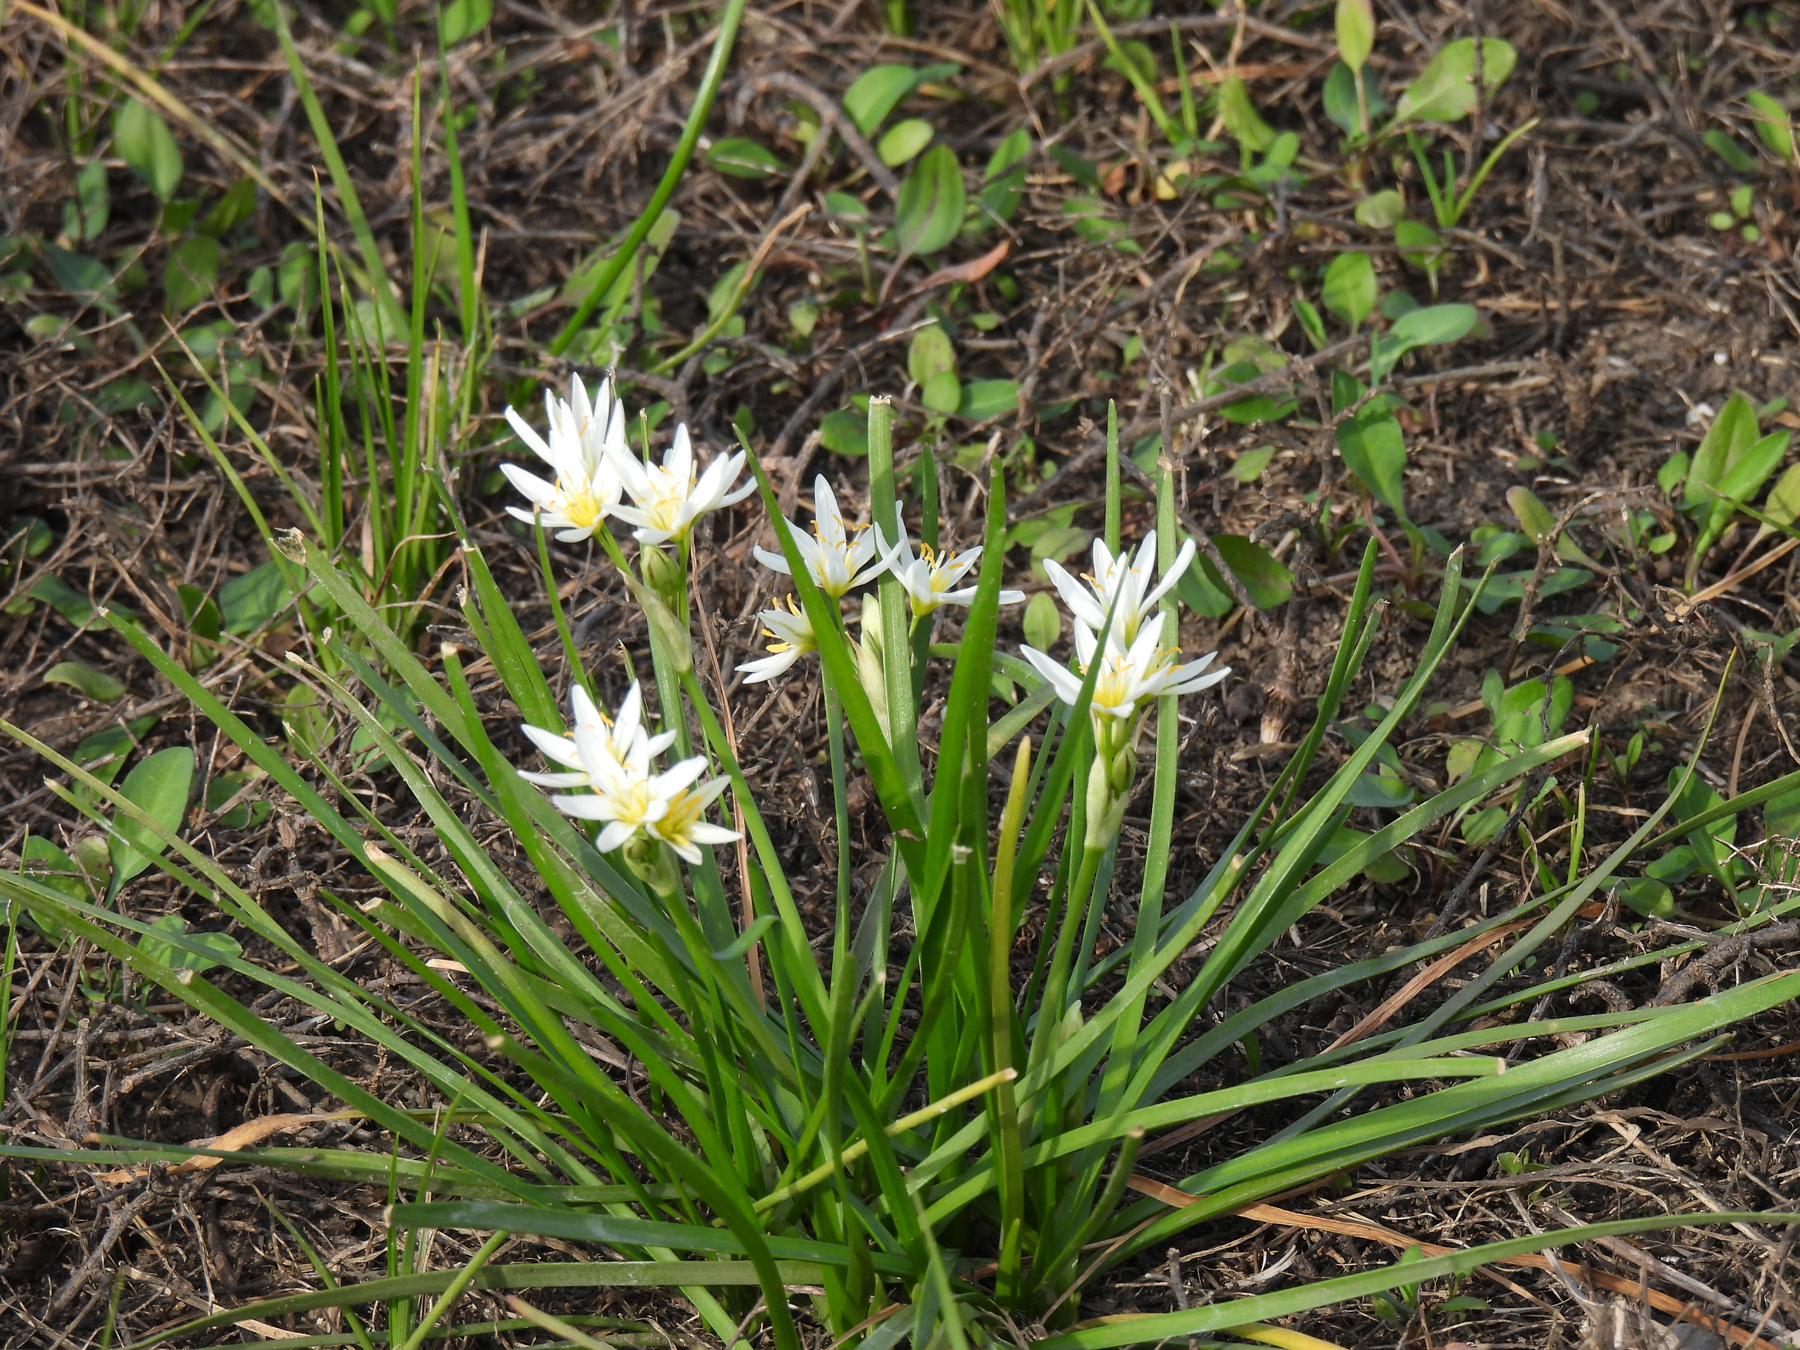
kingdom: Plantae
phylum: Tracheophyta
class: Liliopsida
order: Asparagales
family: Amaryllidaceae
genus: Nothoscordum
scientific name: Nothoscordum bivalve
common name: Crow-poison
